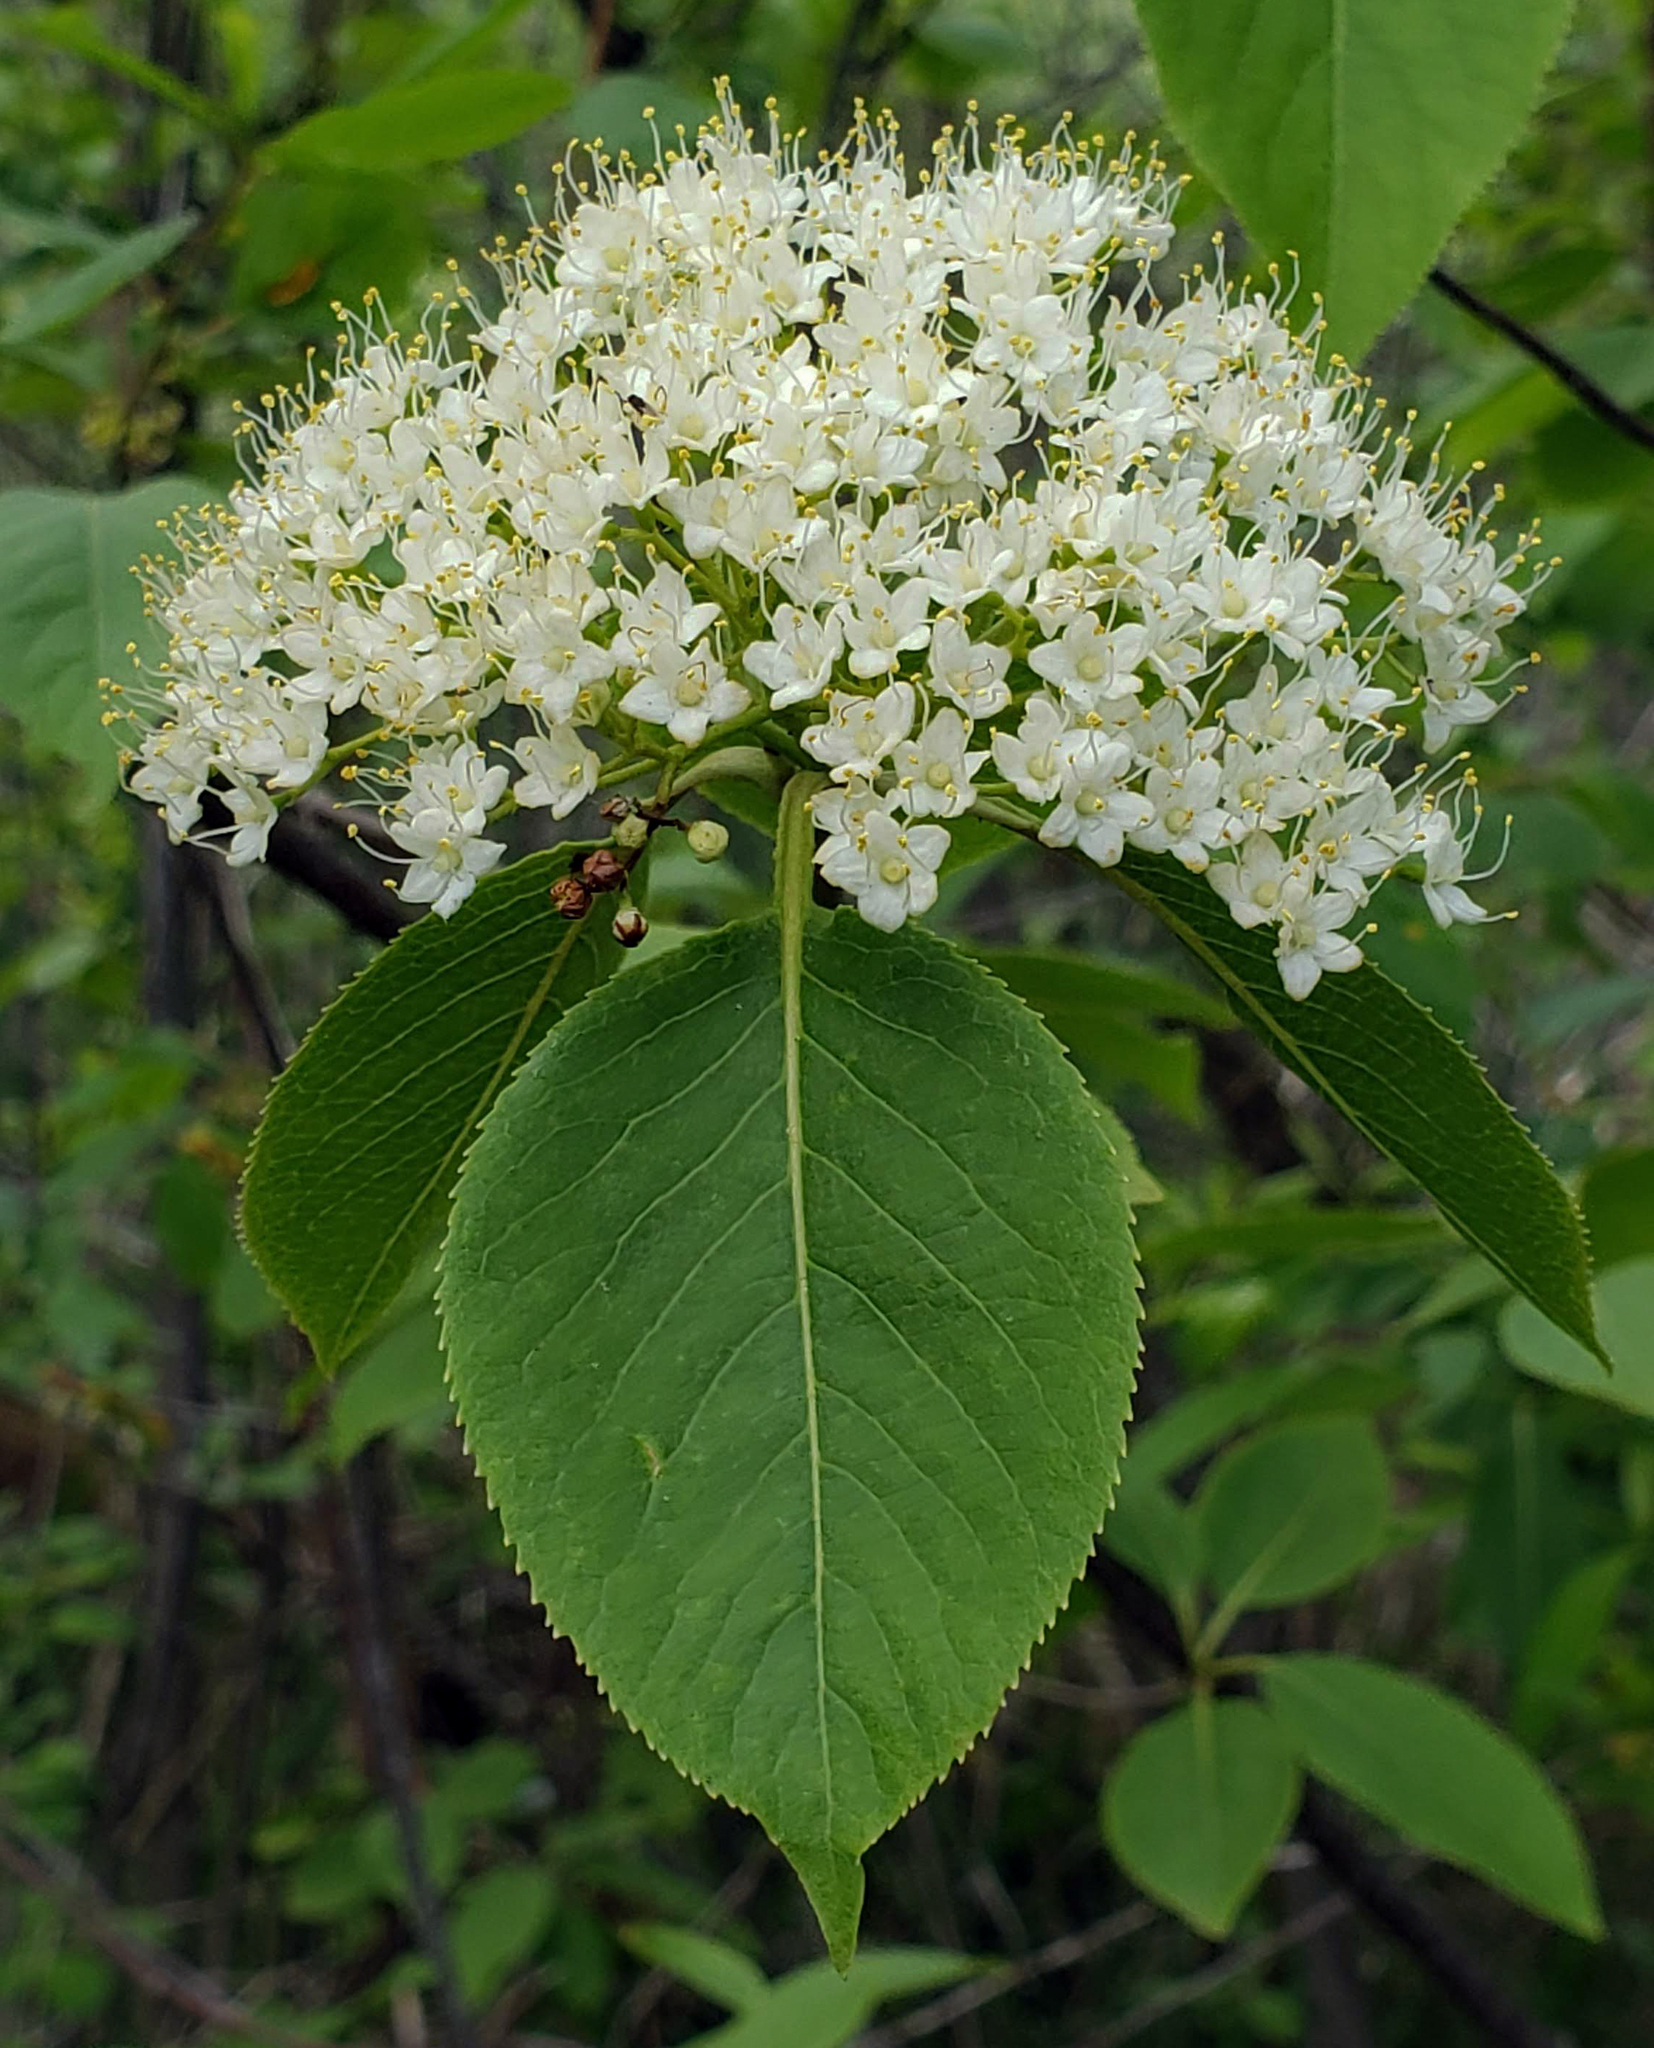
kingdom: Plantae
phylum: Tracheophyta
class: Magnoliopsida
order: Dipsacales
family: Viburnaceae
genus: Viburnum
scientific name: Viburnum lentago
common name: Black haw
